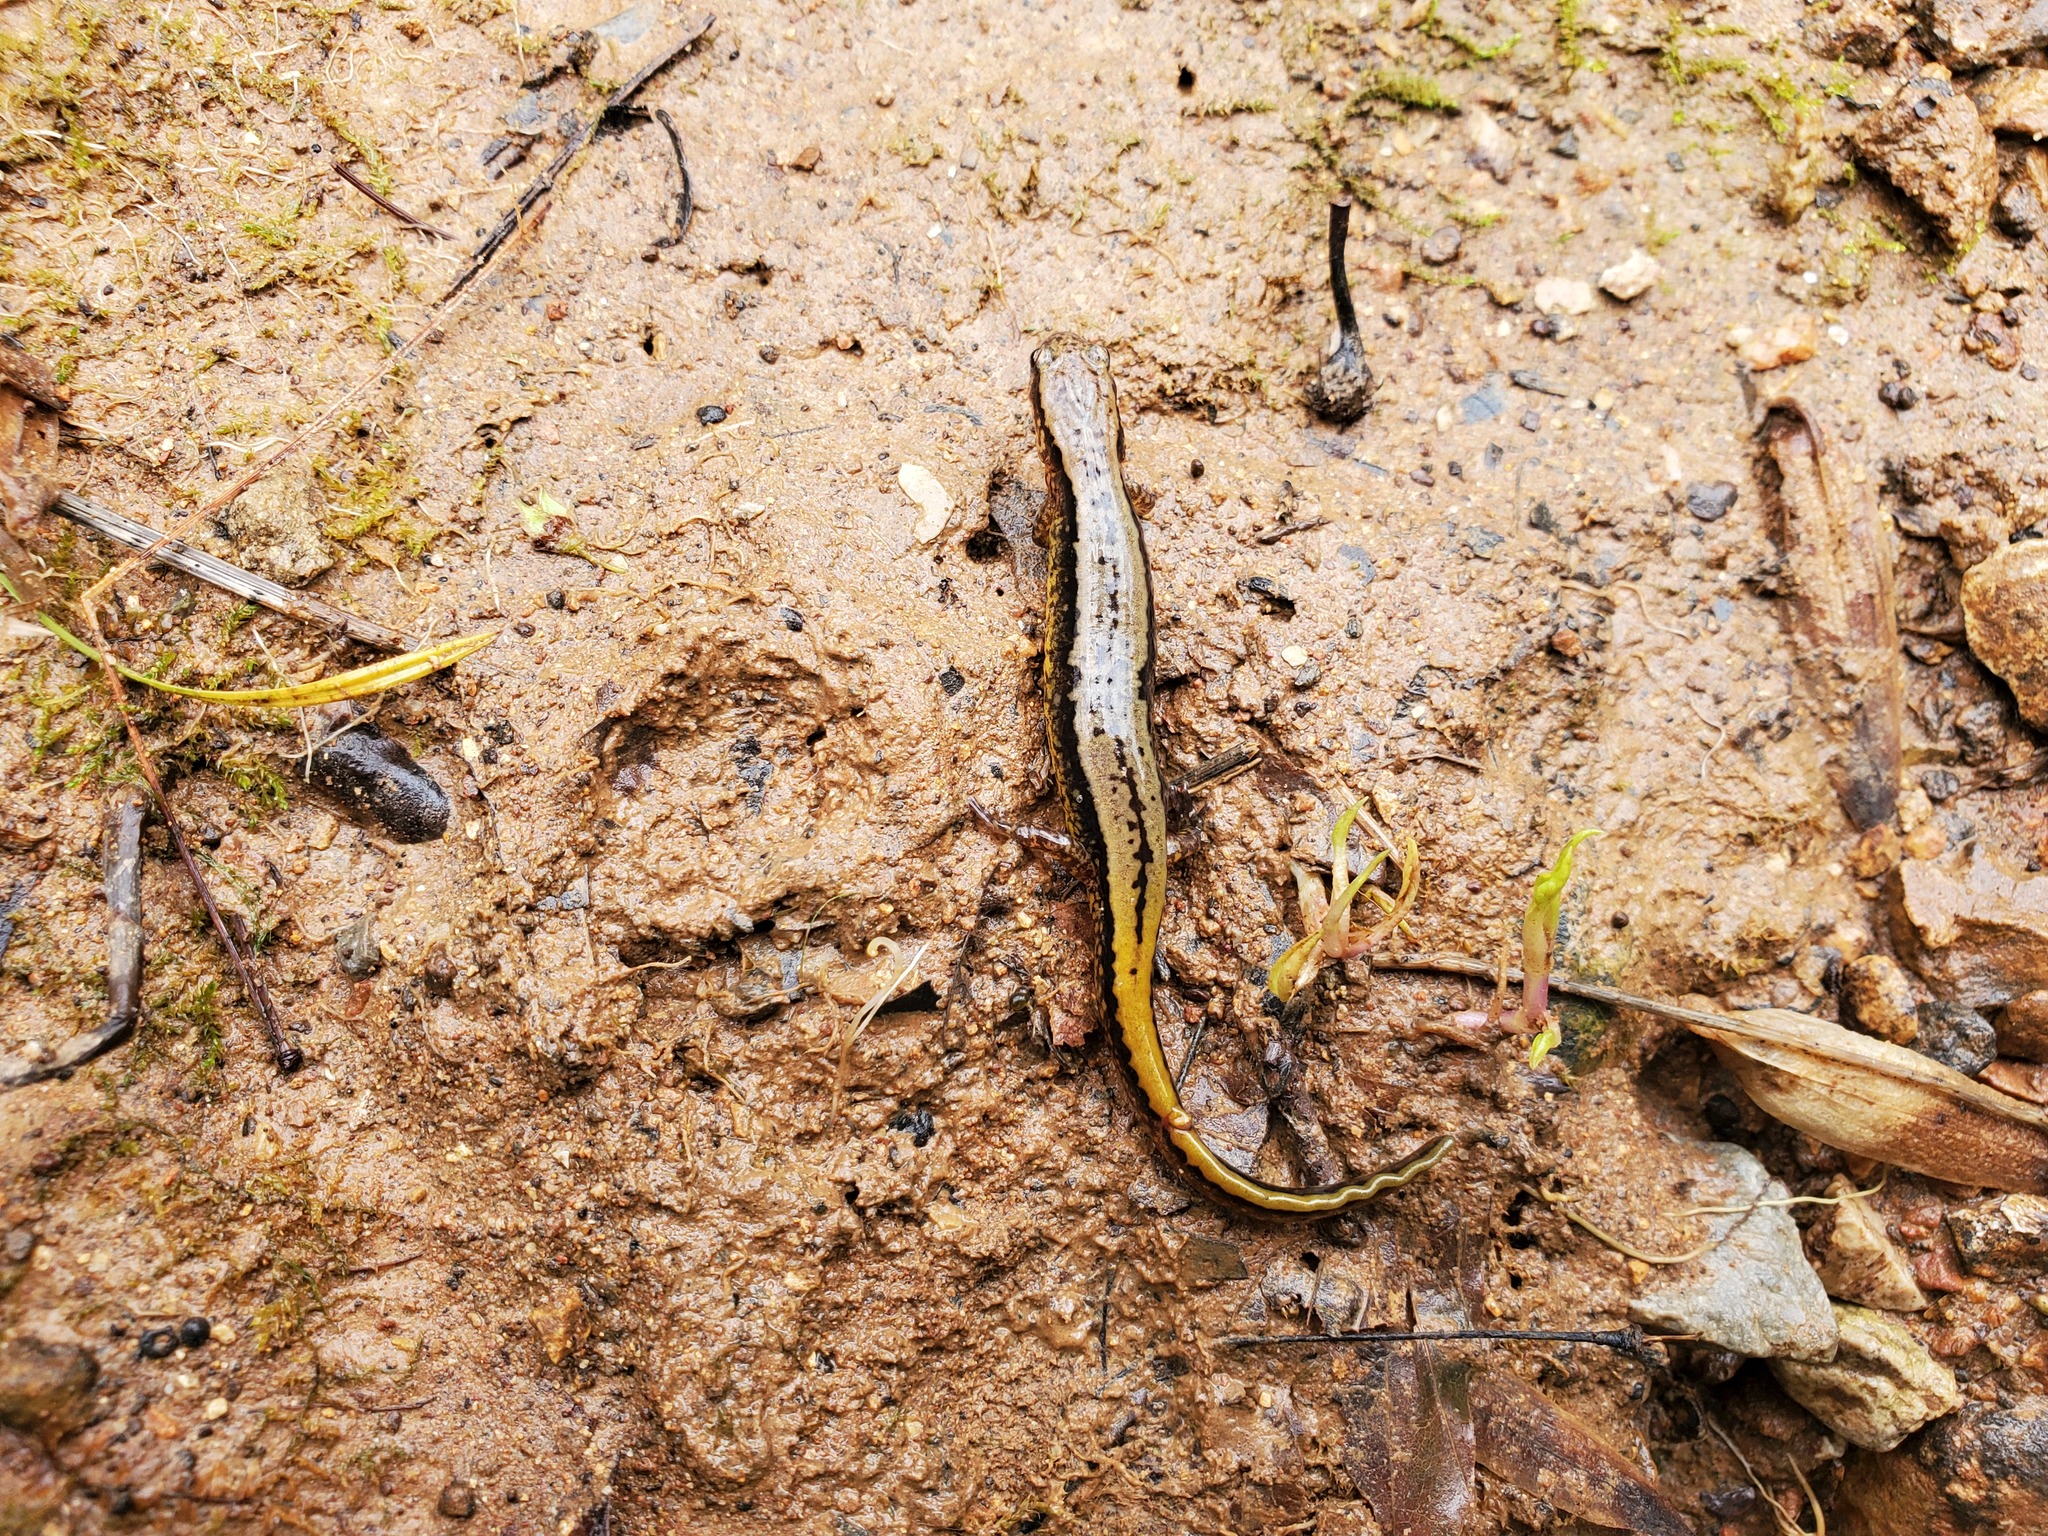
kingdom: Animalia
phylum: Chordata
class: Amphibia
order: Caudata
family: Plethodontidae
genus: Eurycea
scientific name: Eurycea cirrigera
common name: Southern two-lined salamander
